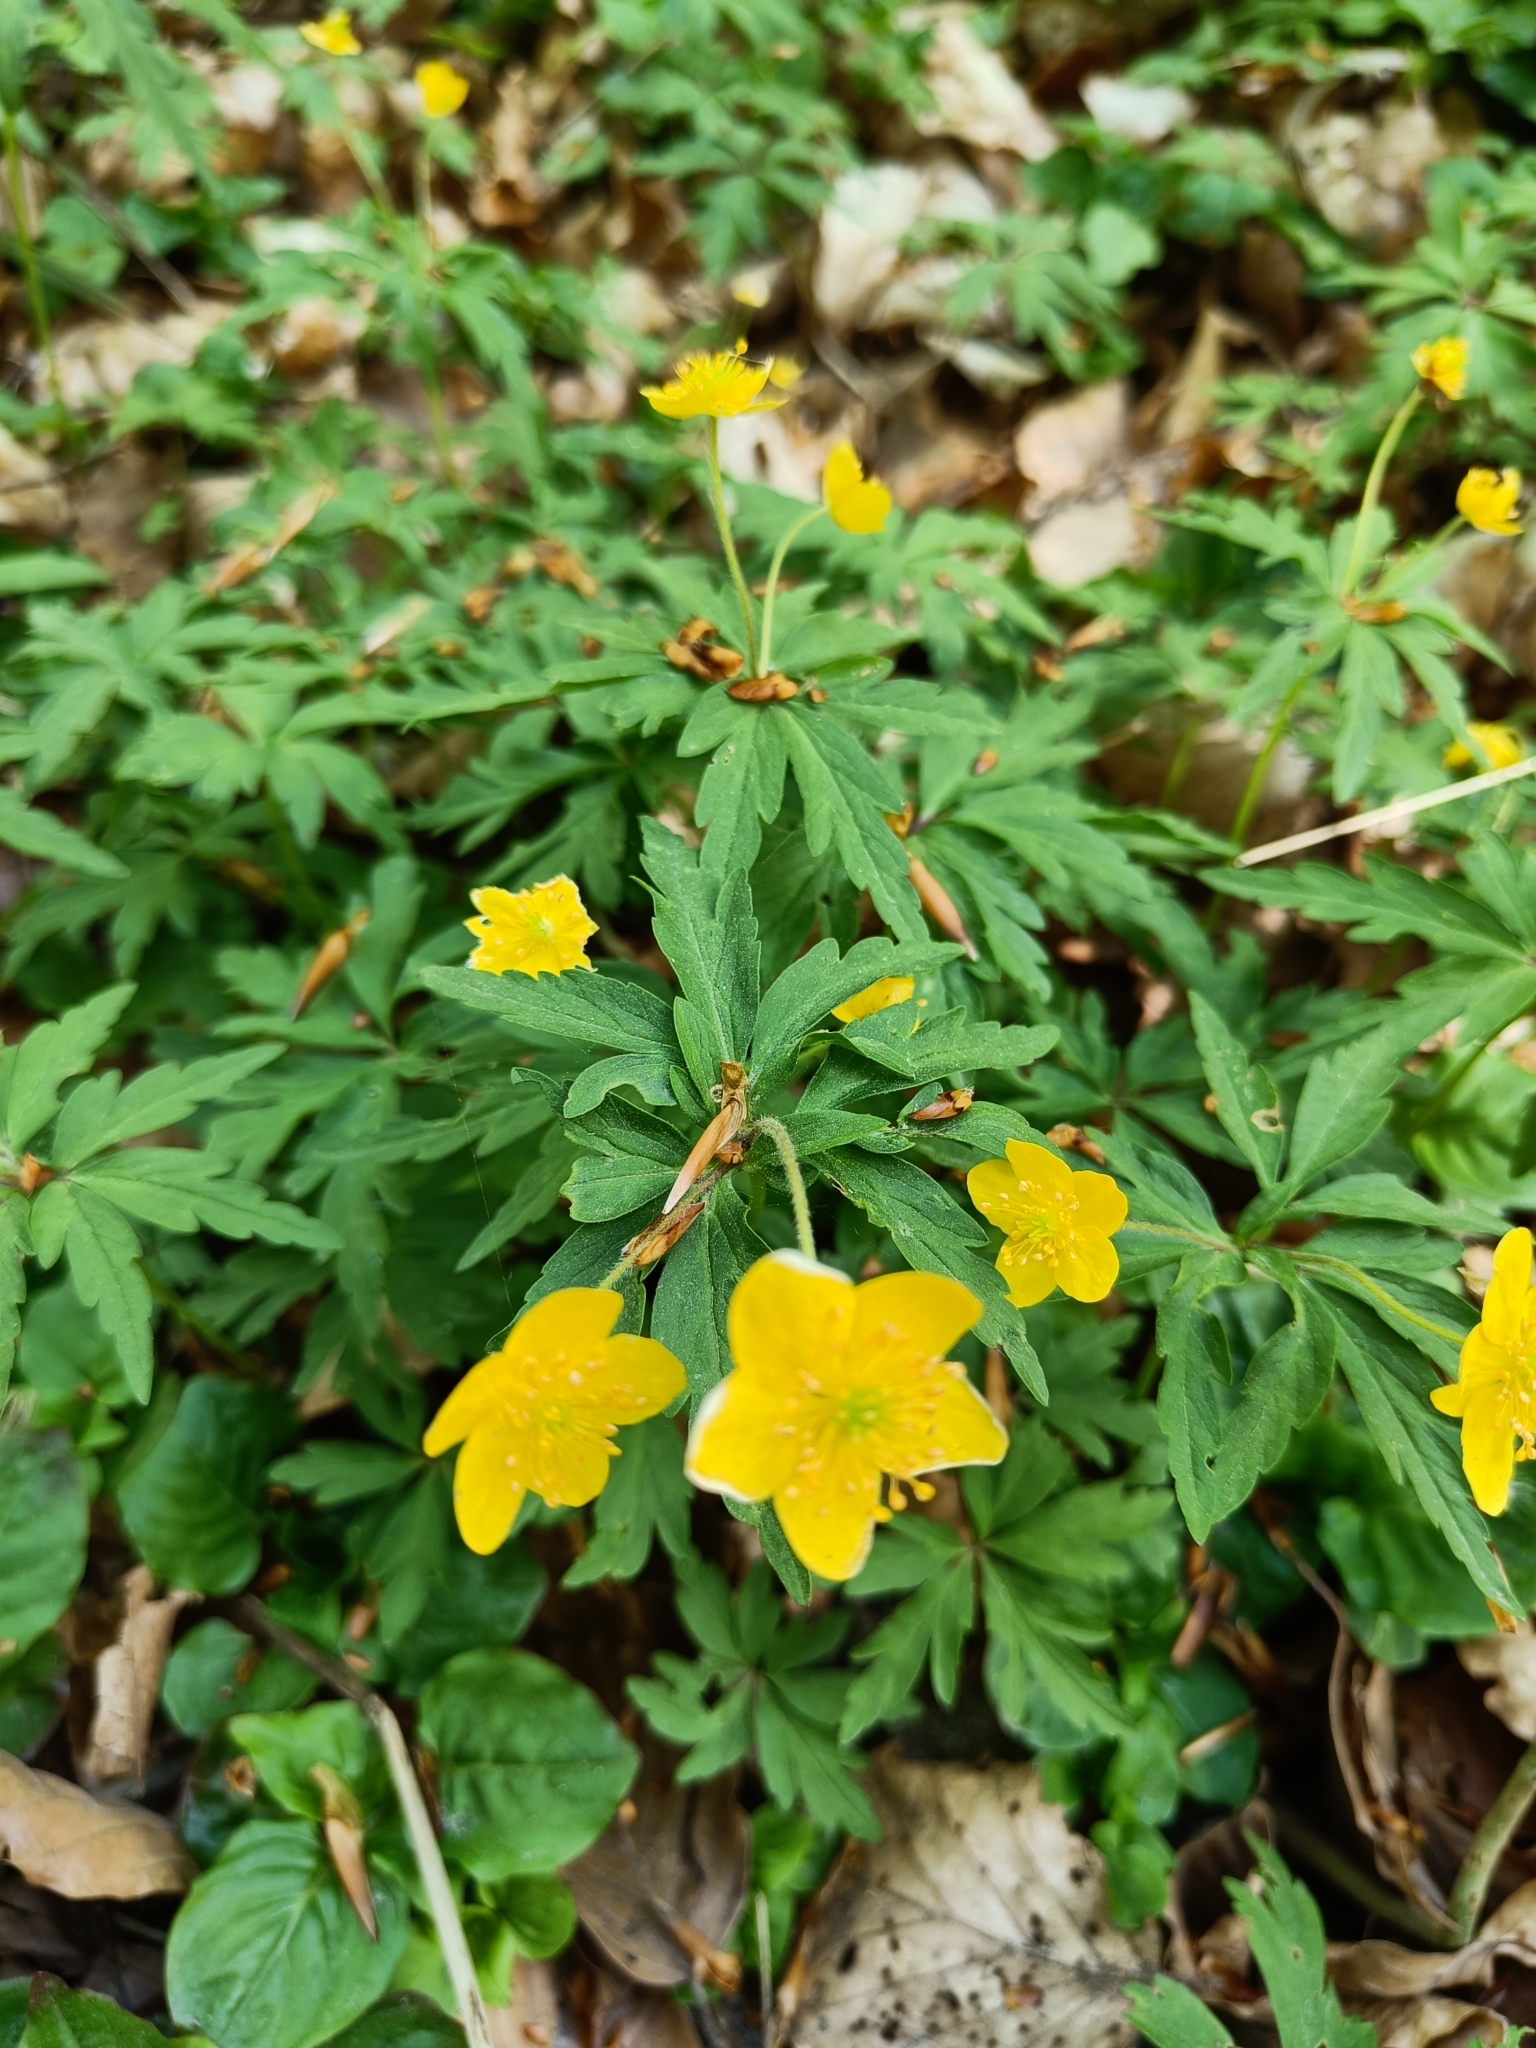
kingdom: Plantae
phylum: Tracheophyta
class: Magnoliopsida
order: Ranunculales
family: Ranunculaceae
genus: Anemone
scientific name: Anemone ranunculoides
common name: Yellow anemone
